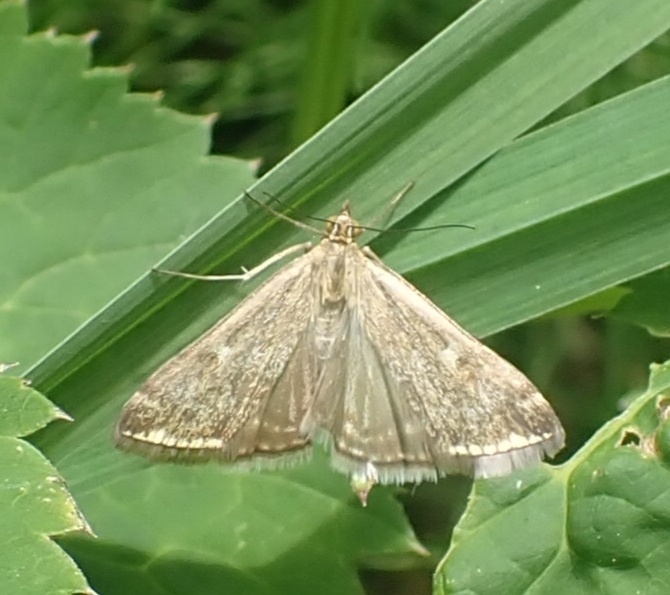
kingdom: Animalia
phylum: Arthropoda
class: Insecta
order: Lepidoptera
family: Crambidae
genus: Loxostege
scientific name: Loxostege sticticalis
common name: Crambid moth
